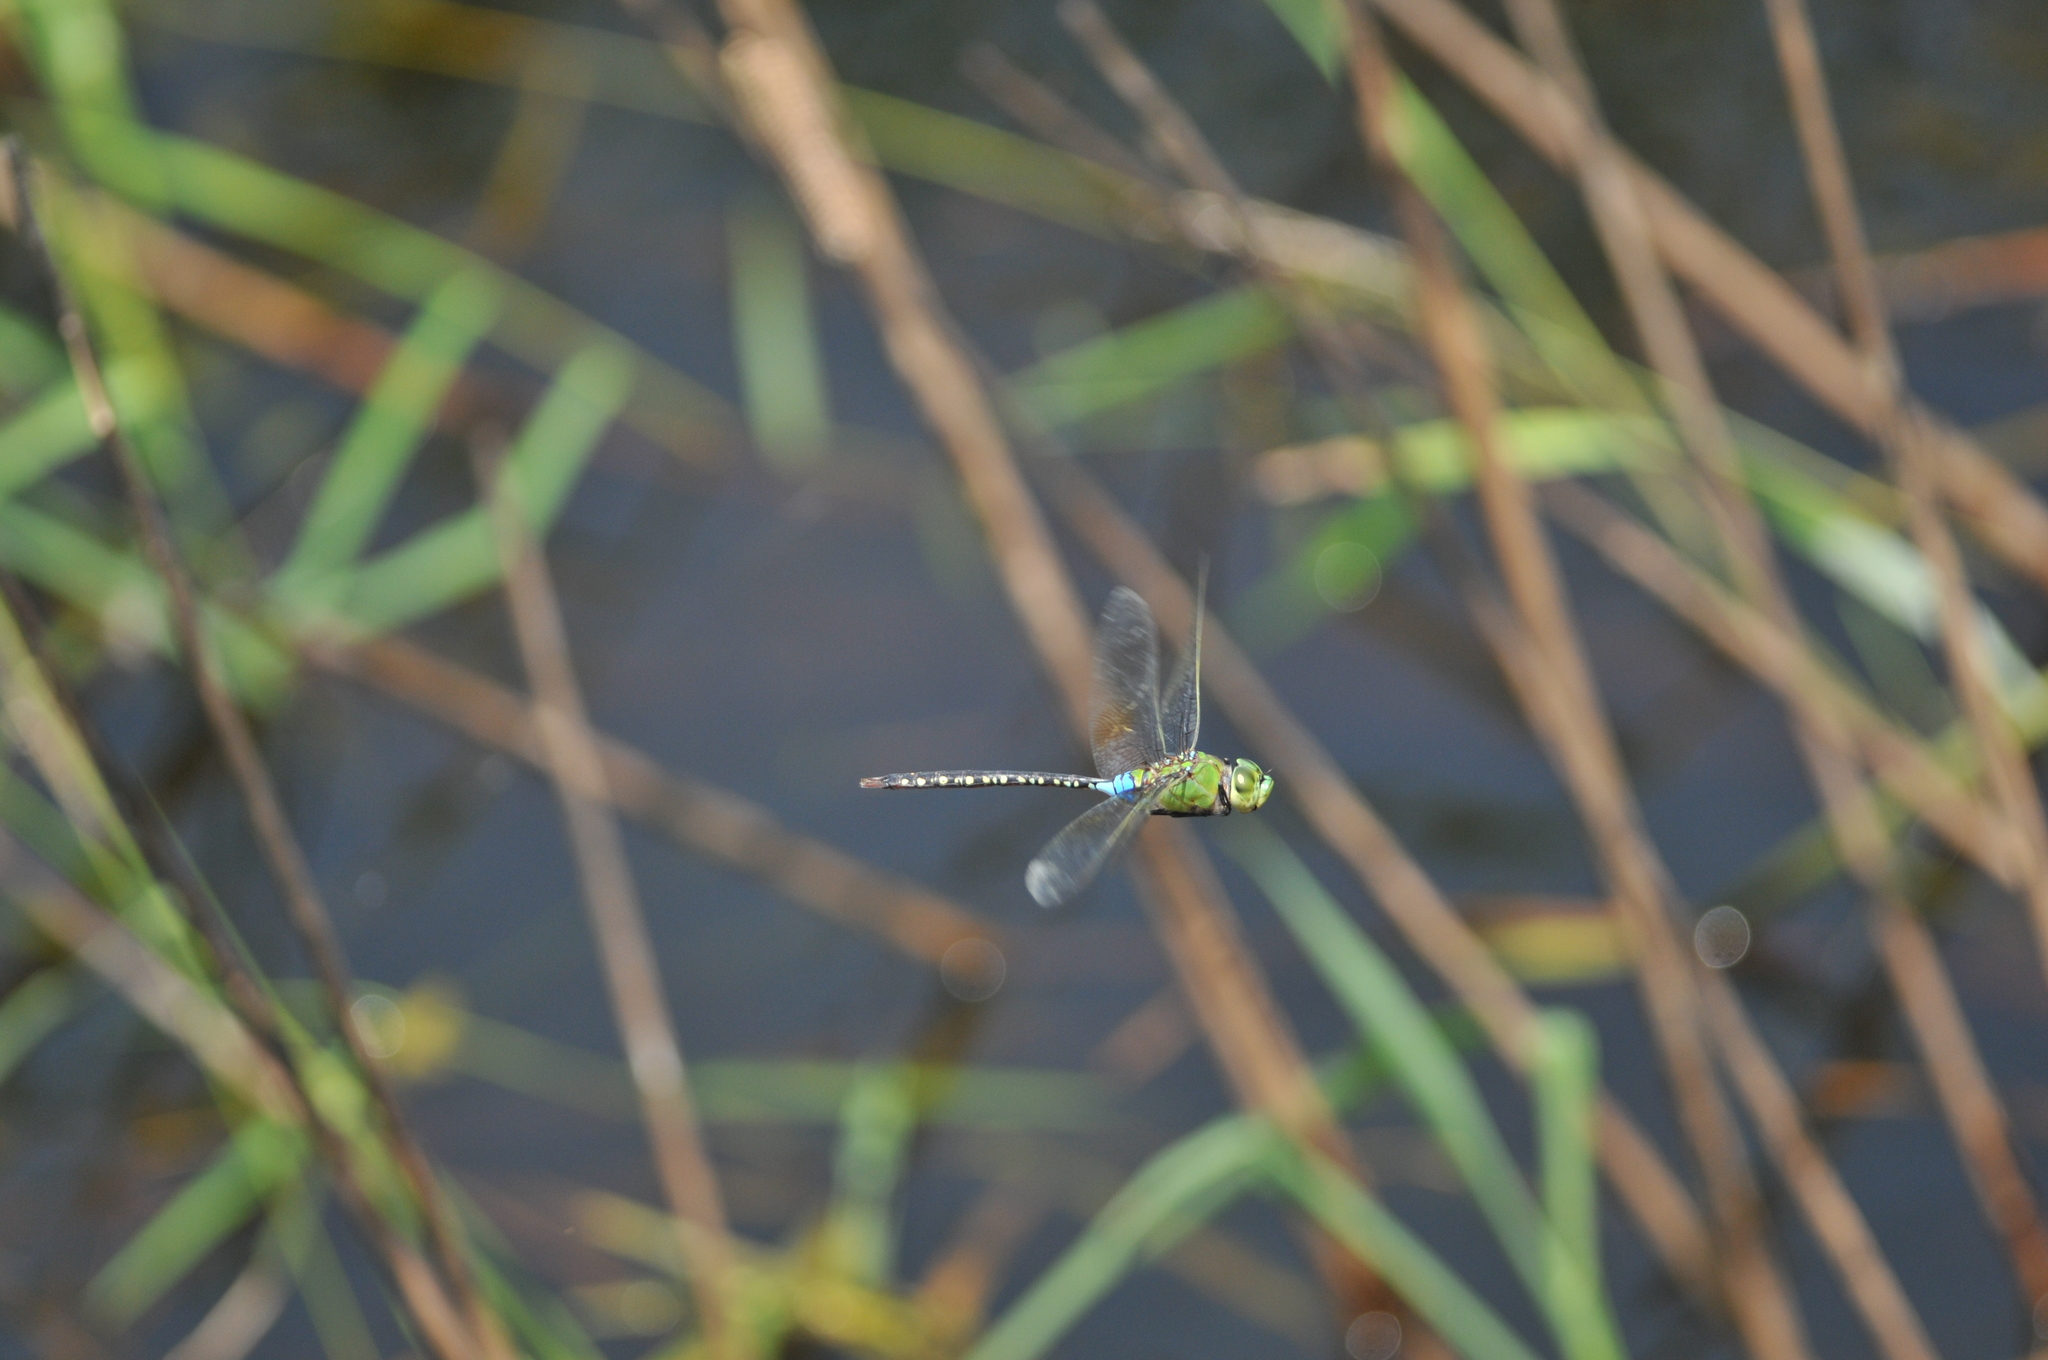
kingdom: Animalia
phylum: Arthropoda
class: Insecta
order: Odonata
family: Aeshnidae
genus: Anax
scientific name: Anax guttatus
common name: Emperor
